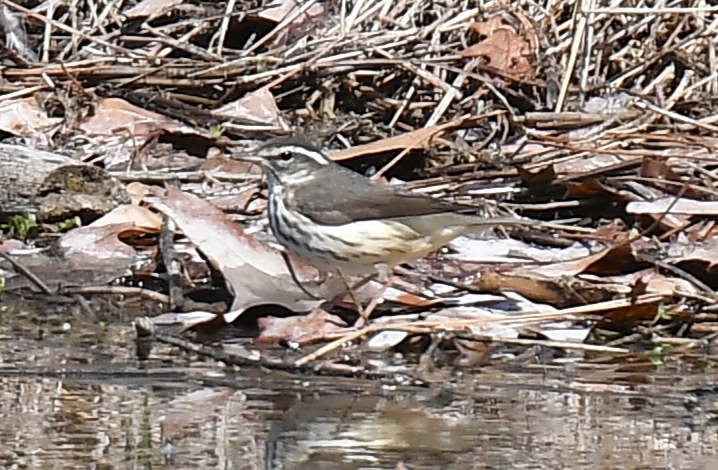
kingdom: Animalia
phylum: Chordata
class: Aves
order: Passeriformes
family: Parulidae
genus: Parkesia
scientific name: Parkesia motacilla
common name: Louisiana waterthrush
